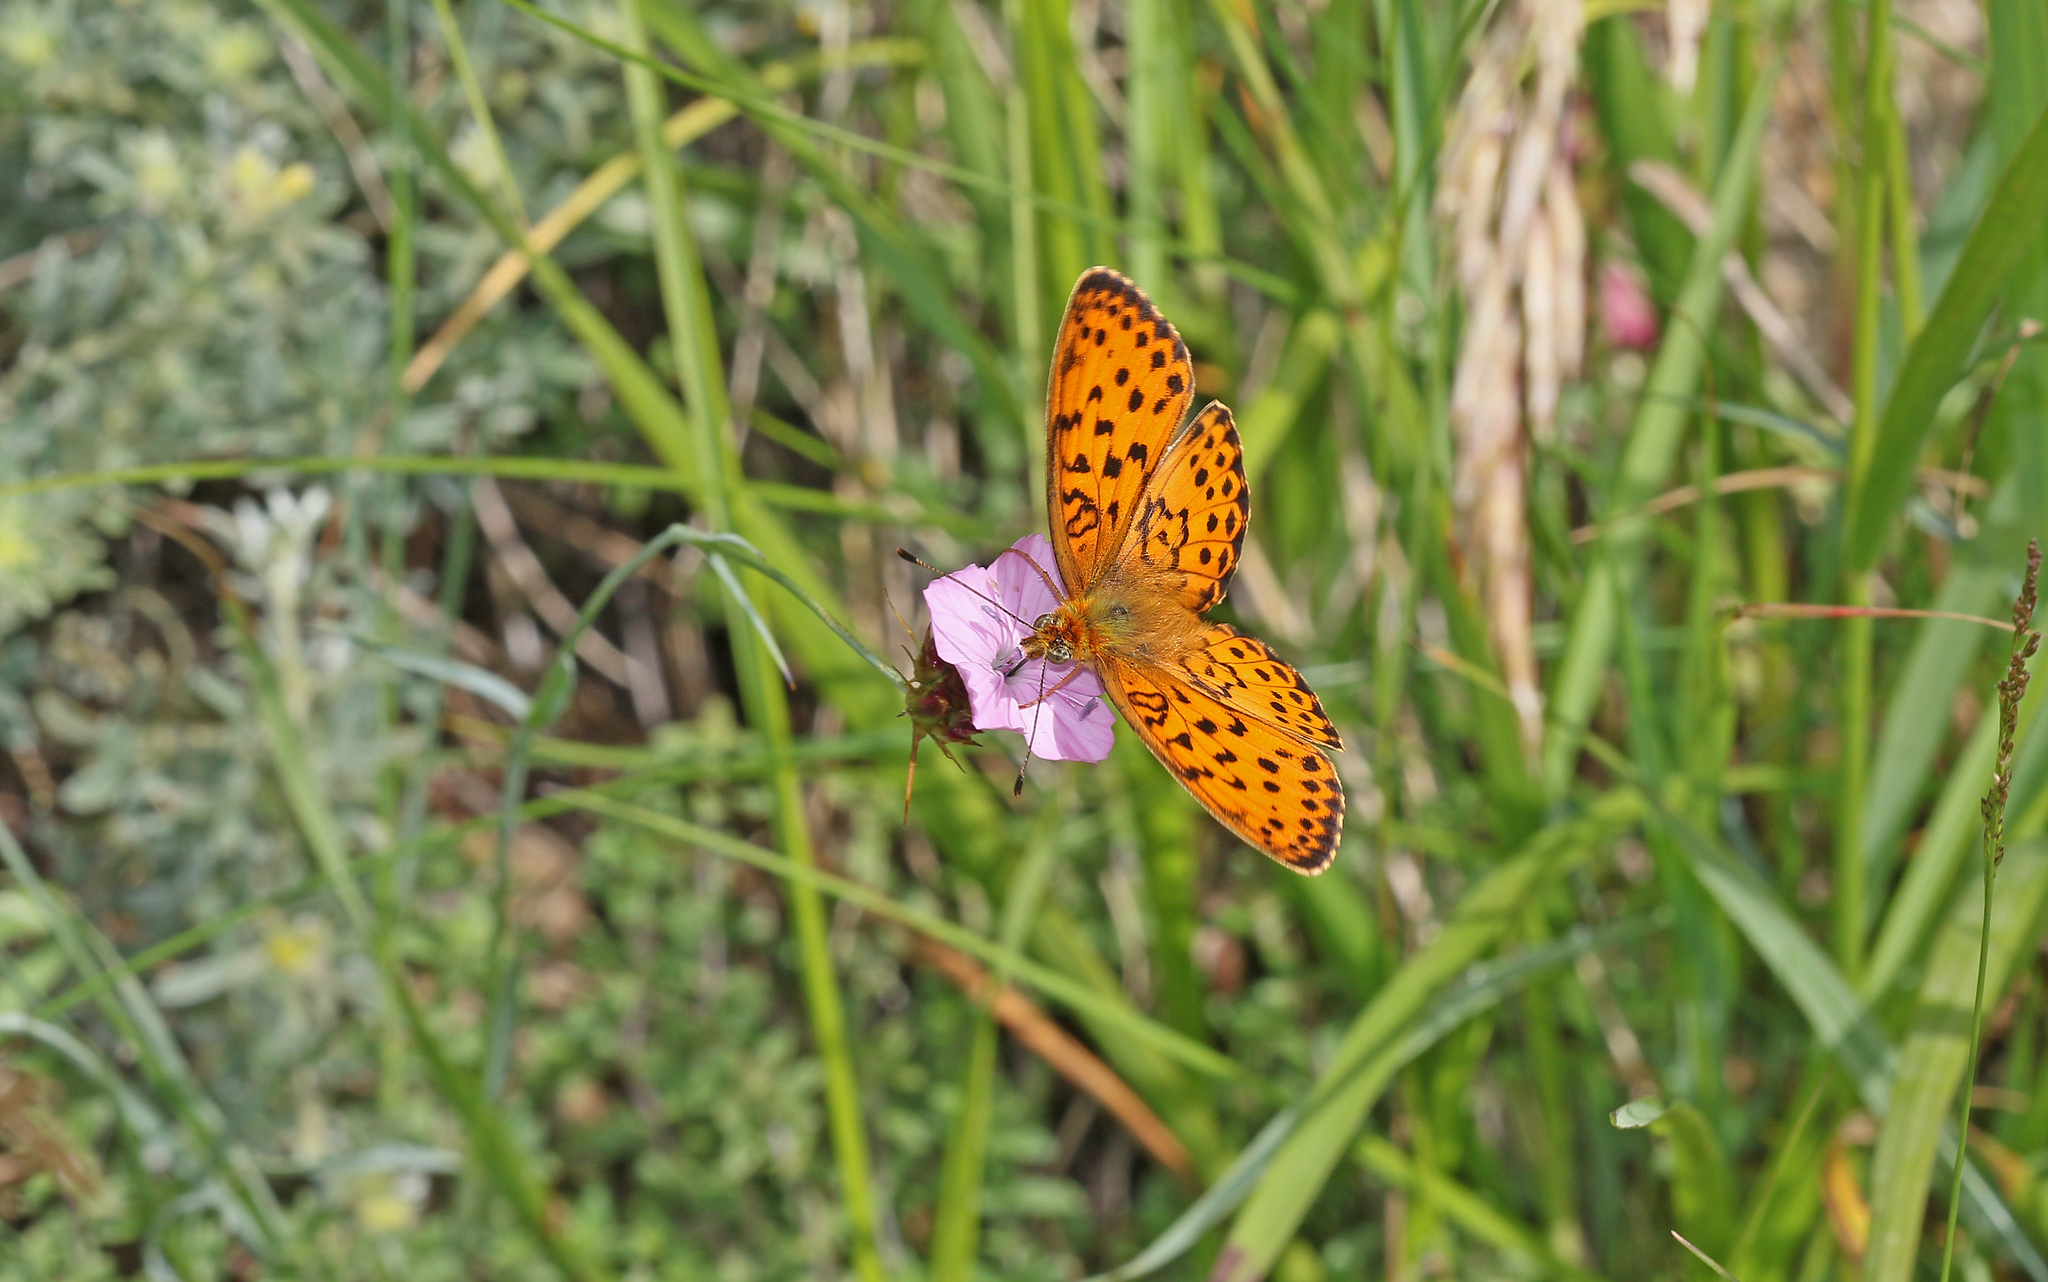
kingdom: Animalia
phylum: Arthropoda
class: Insecta
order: Lepidoptera
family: Nymphalidae
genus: Brenthis
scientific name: Brenthis daphne
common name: Marbled fritillary
